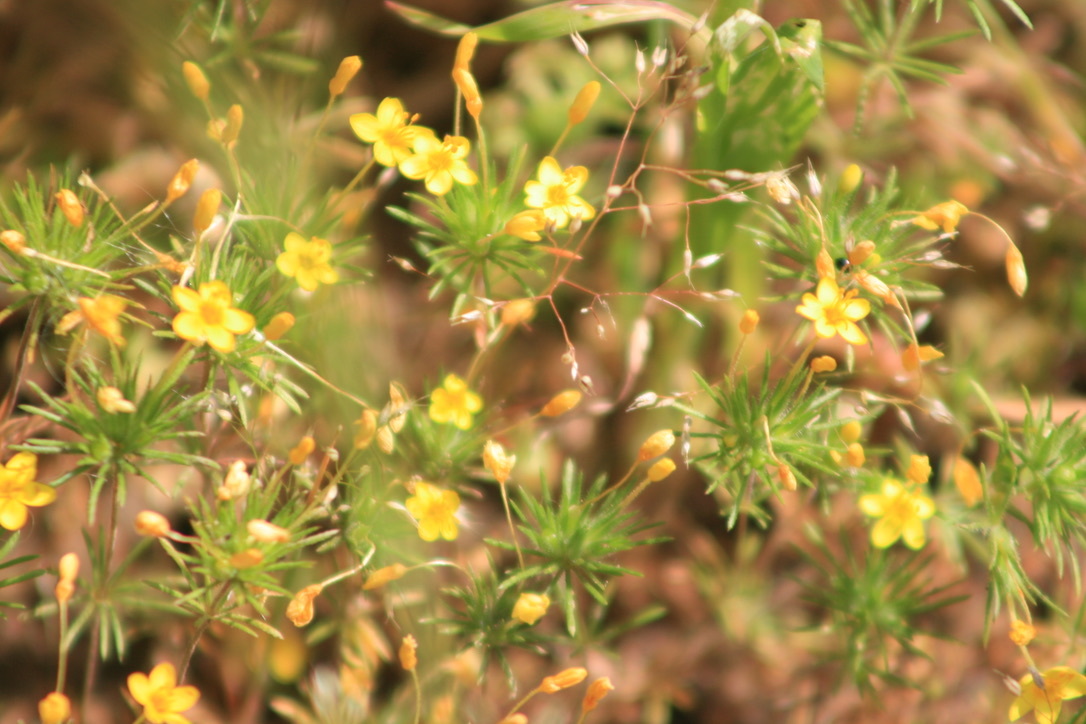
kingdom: Plantae
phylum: Tracheophyta
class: Magnoliopsida
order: Ericales
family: Polemoniaceae
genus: Leptosiphon
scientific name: Leptosiphon acicularis
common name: Bristly linanthus
